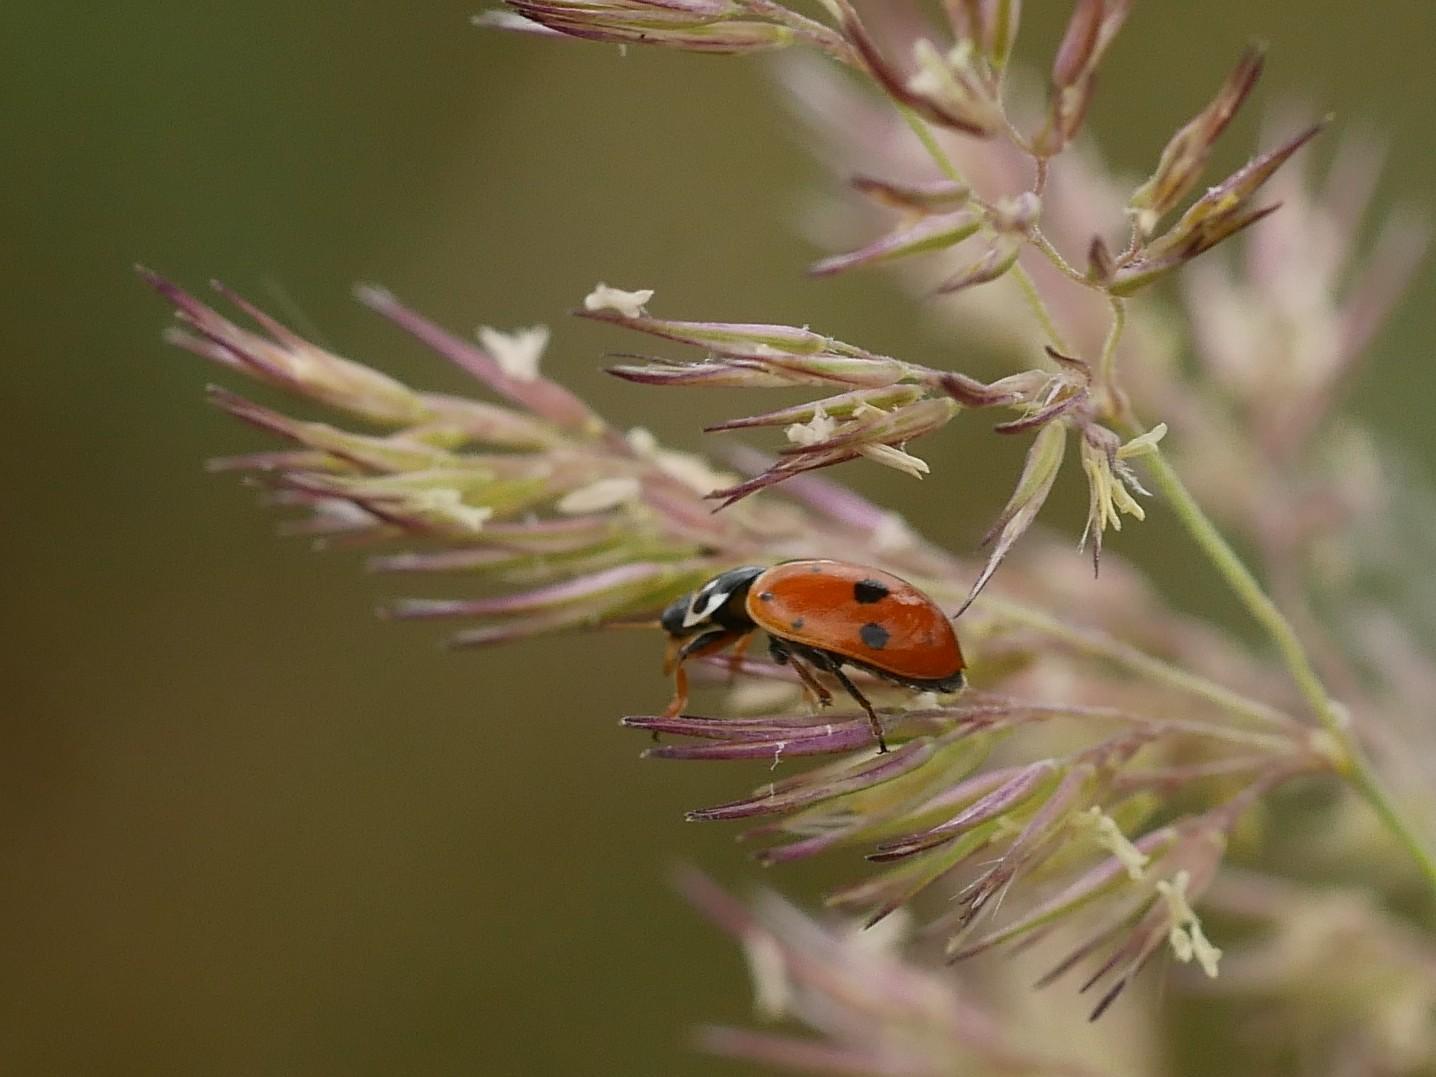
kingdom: Animalia
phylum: Arthropoda
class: Insecta
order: Coleoptera
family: Coccinellidae
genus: Hippodamia
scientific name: Hippodamia variegata
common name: Ladybird beetle
